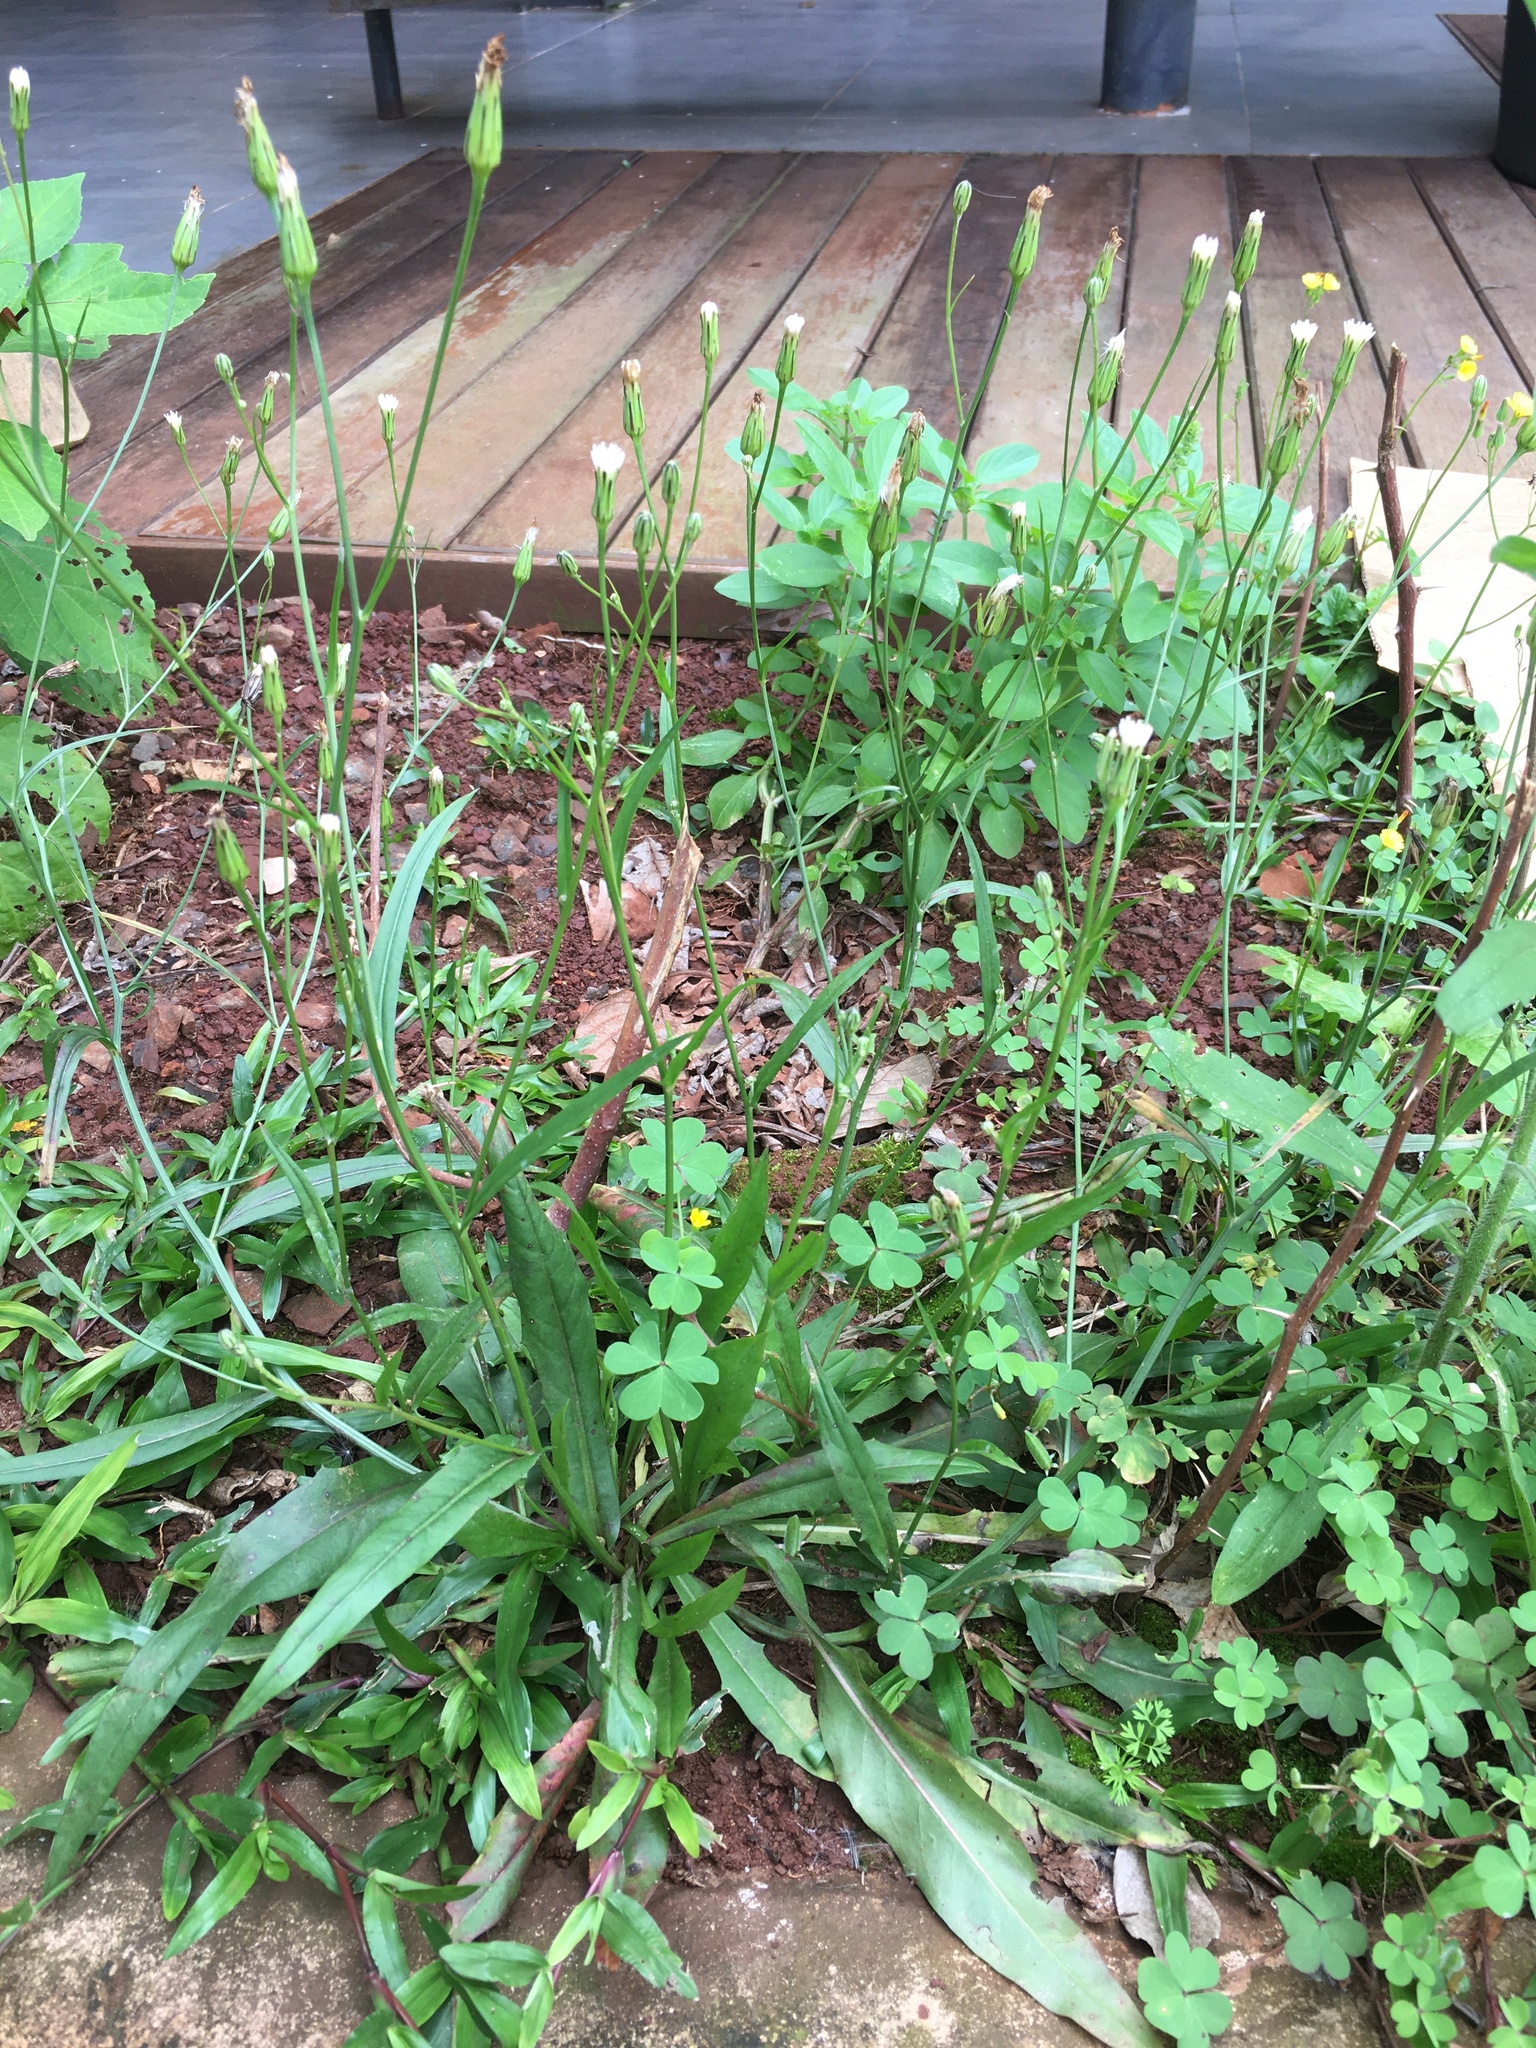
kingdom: Plantae
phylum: Tracheophyta
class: Magnoliopsida
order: Asterales
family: Asteraceae
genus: Hypochaeris
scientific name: Hypochaeris albiflora
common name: White flatweed
